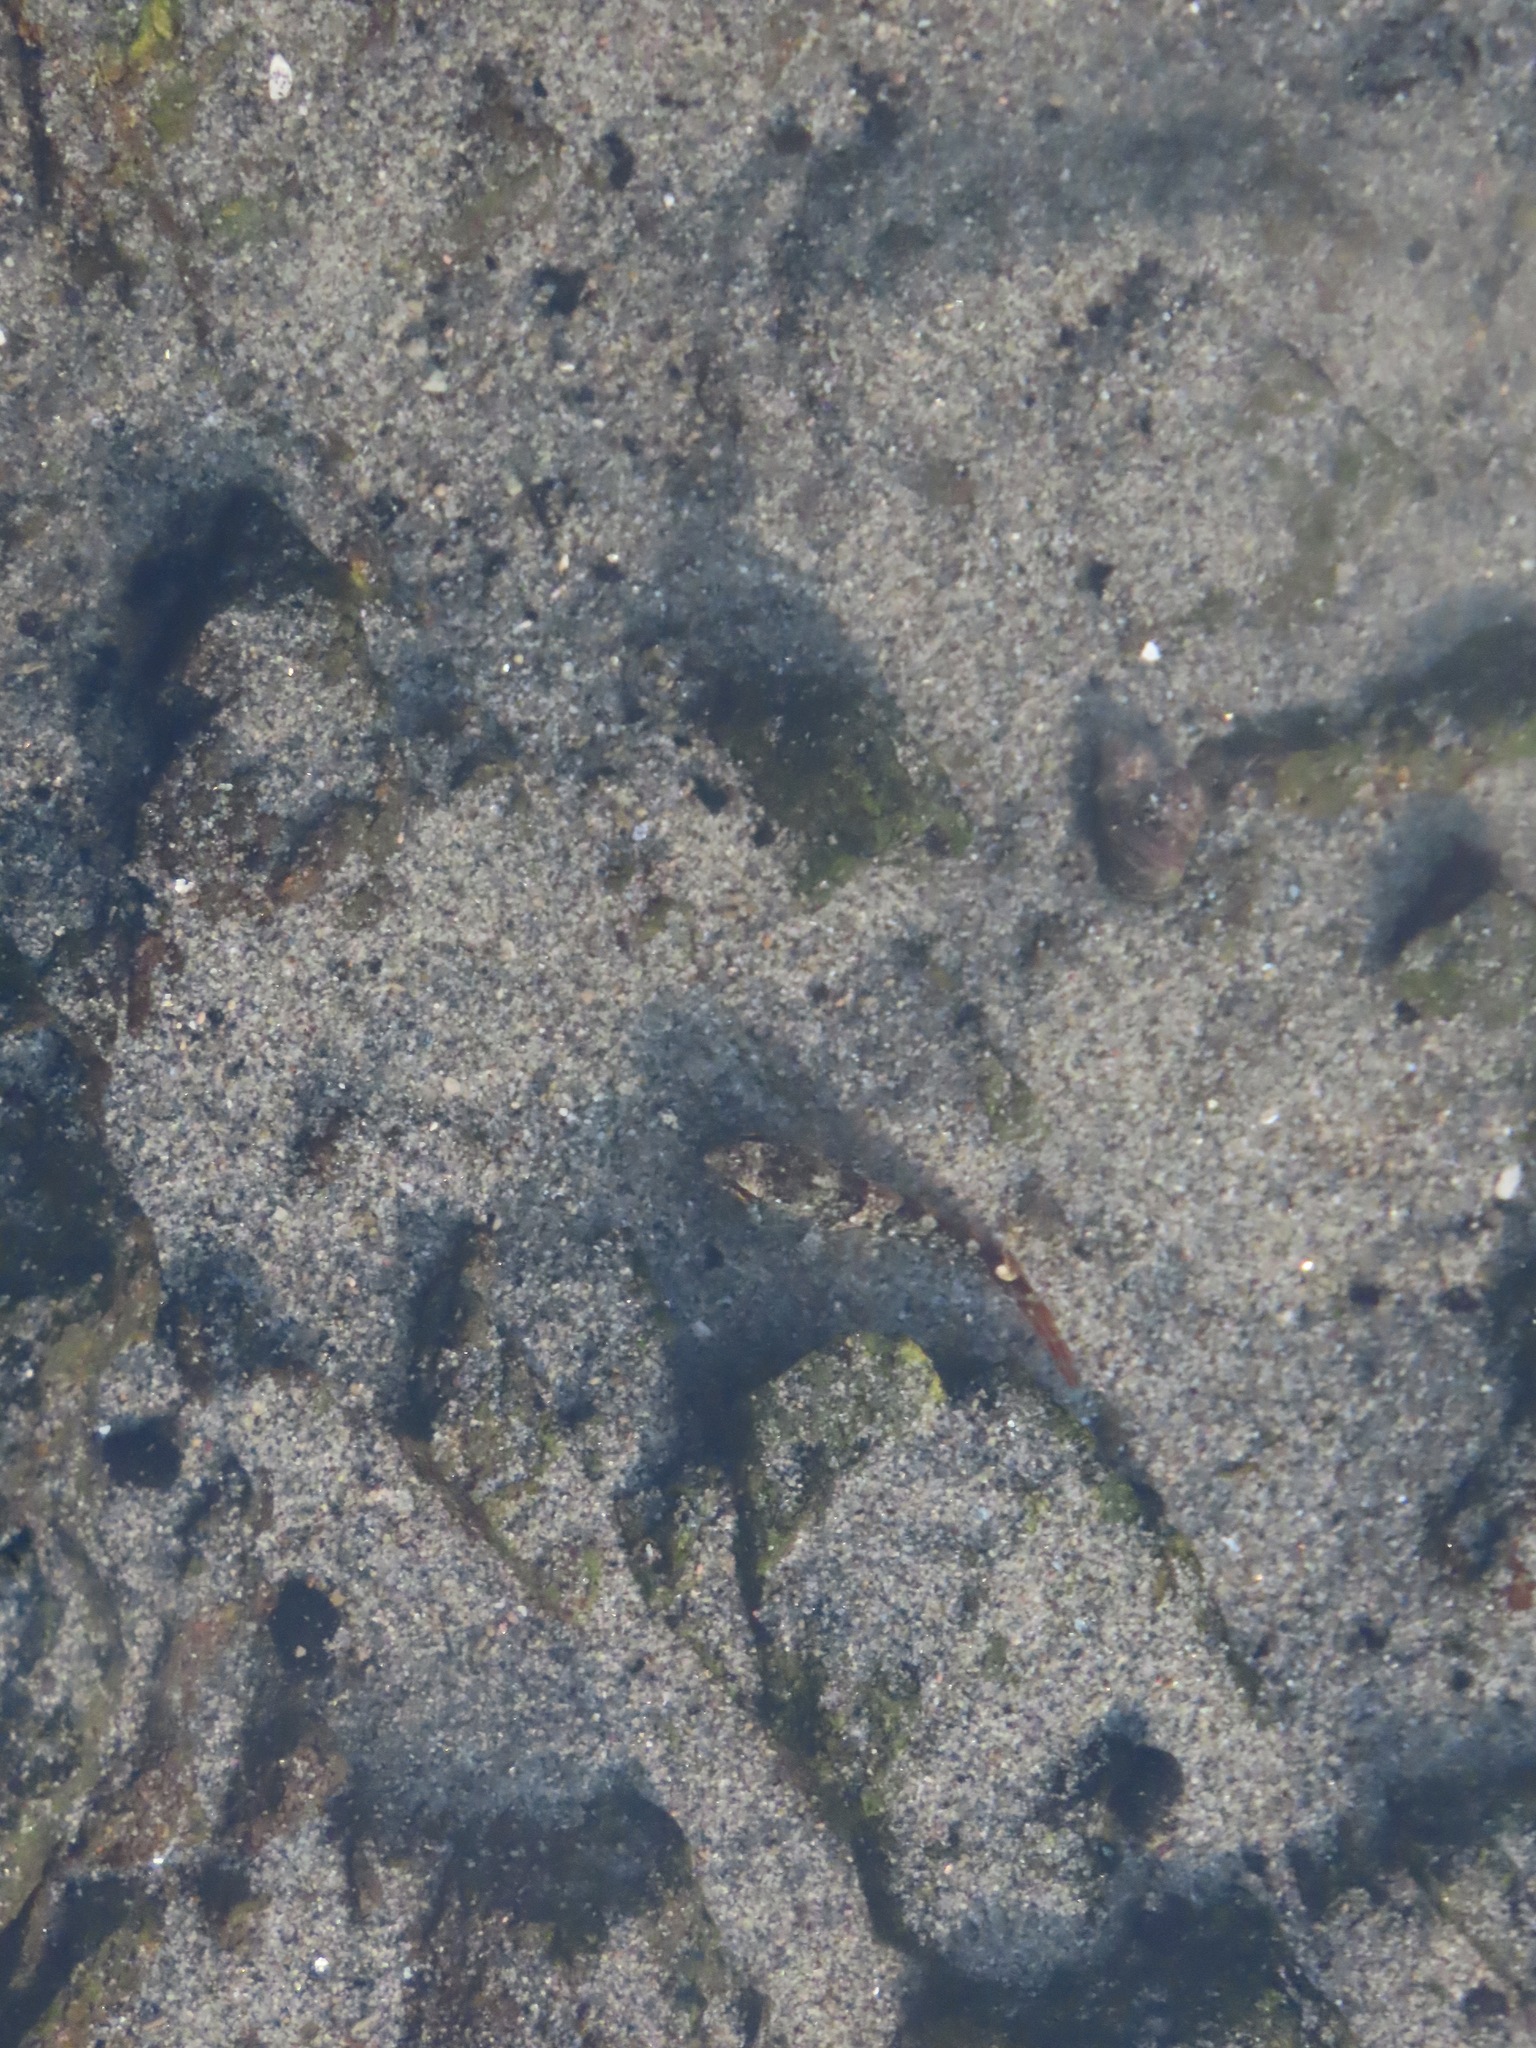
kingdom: Animalia
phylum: Chordata
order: Scorpaeniformes
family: Cottidae
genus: Oligocottus
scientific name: Oligocottus maculosus
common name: Tidepool sculpin
